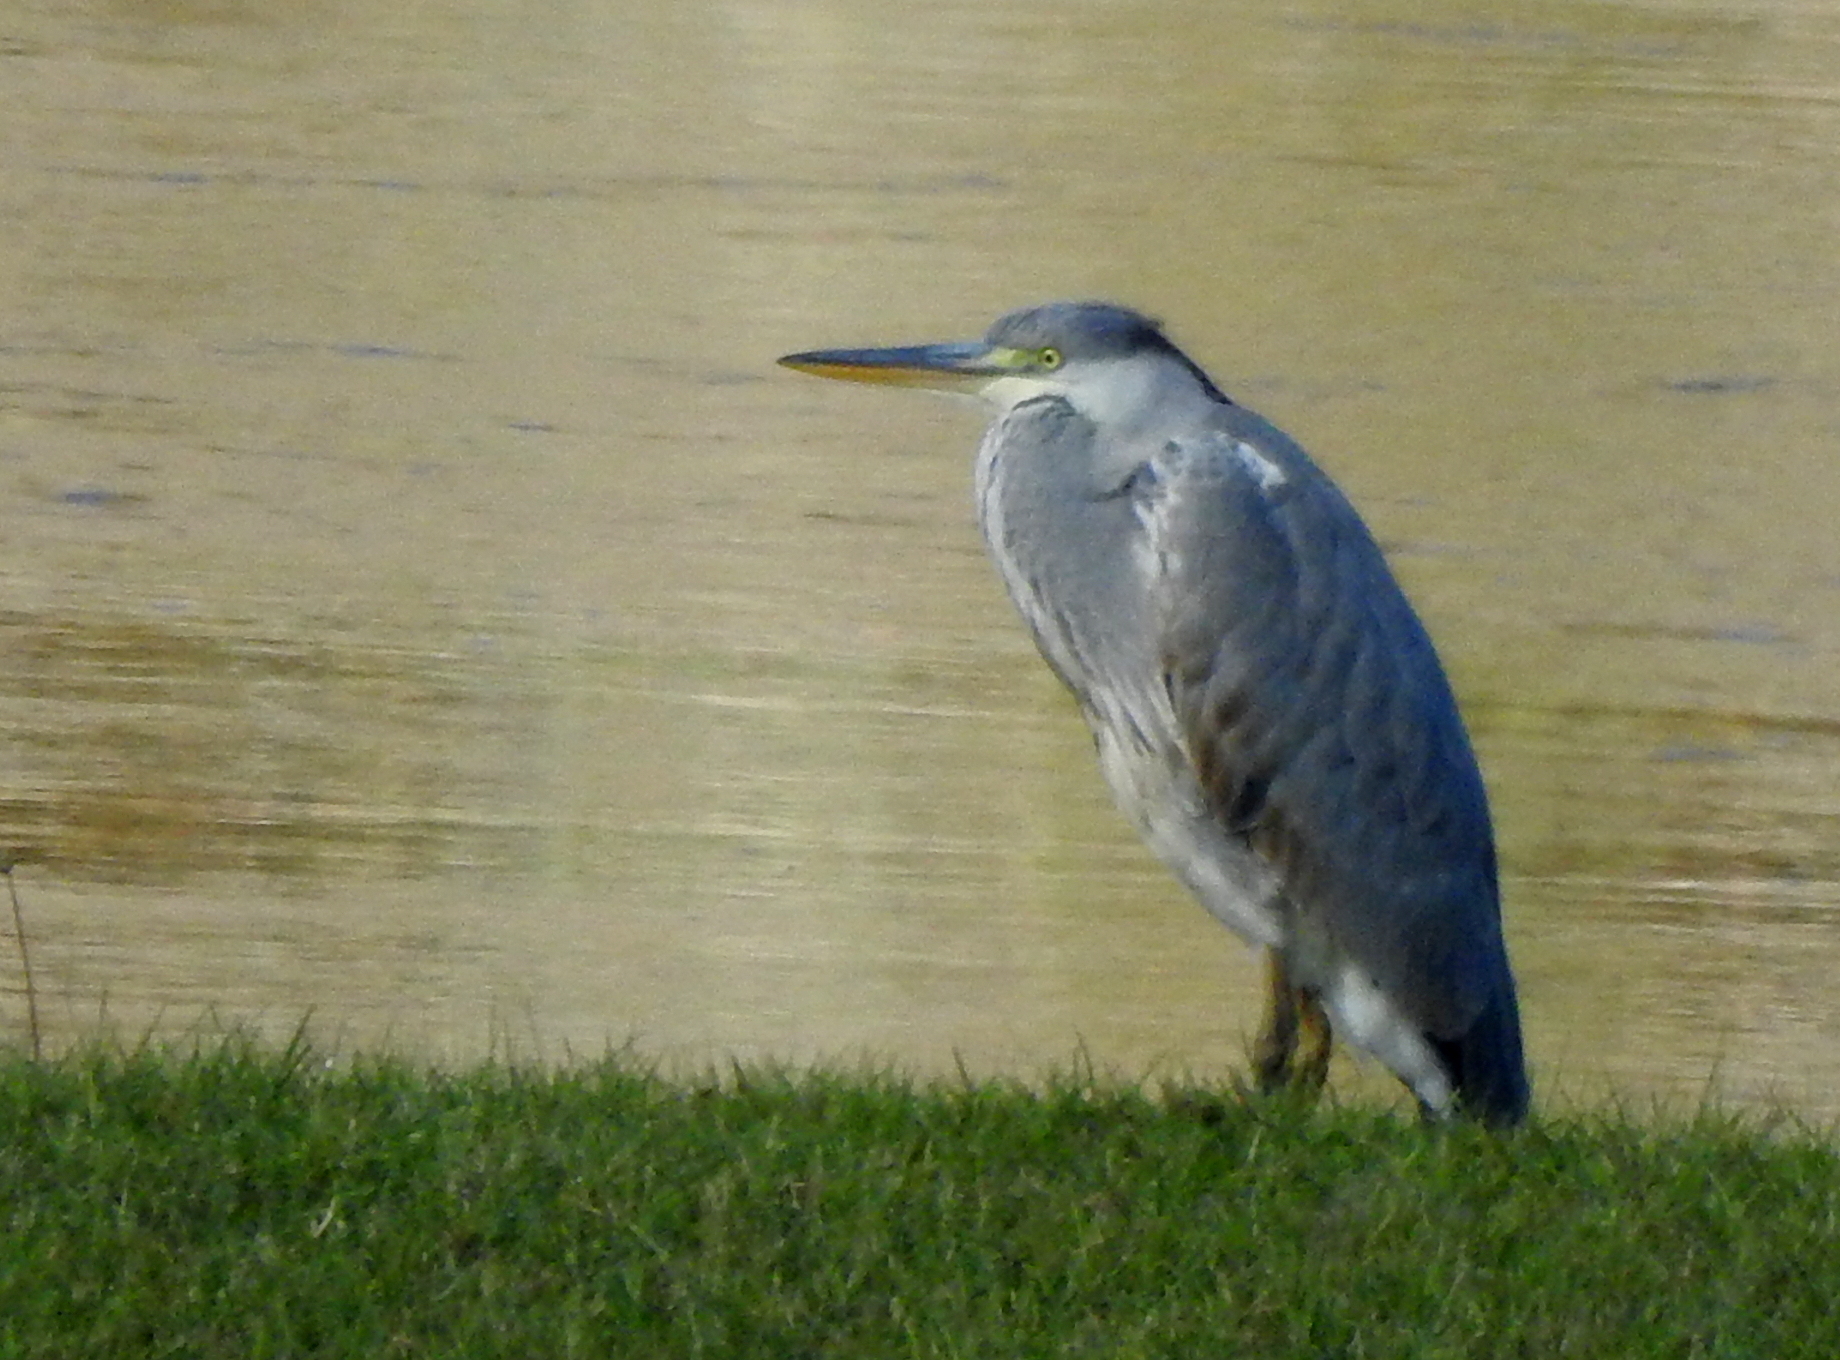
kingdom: Animalia
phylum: Chordata
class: Aves
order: Pelecaniformes
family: Ardeidae
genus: Ardea
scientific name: Ardea cinerea
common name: Grey heron
